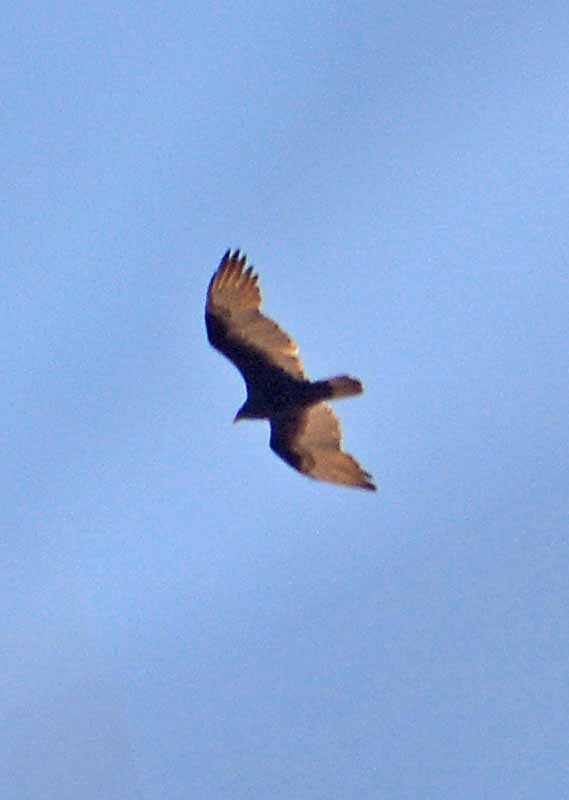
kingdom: Animalia
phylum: Chordata
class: Aves
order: Accipitriformes
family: Cathartidae
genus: Cathartes
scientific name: Cathartes aura
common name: Turkey vulture
